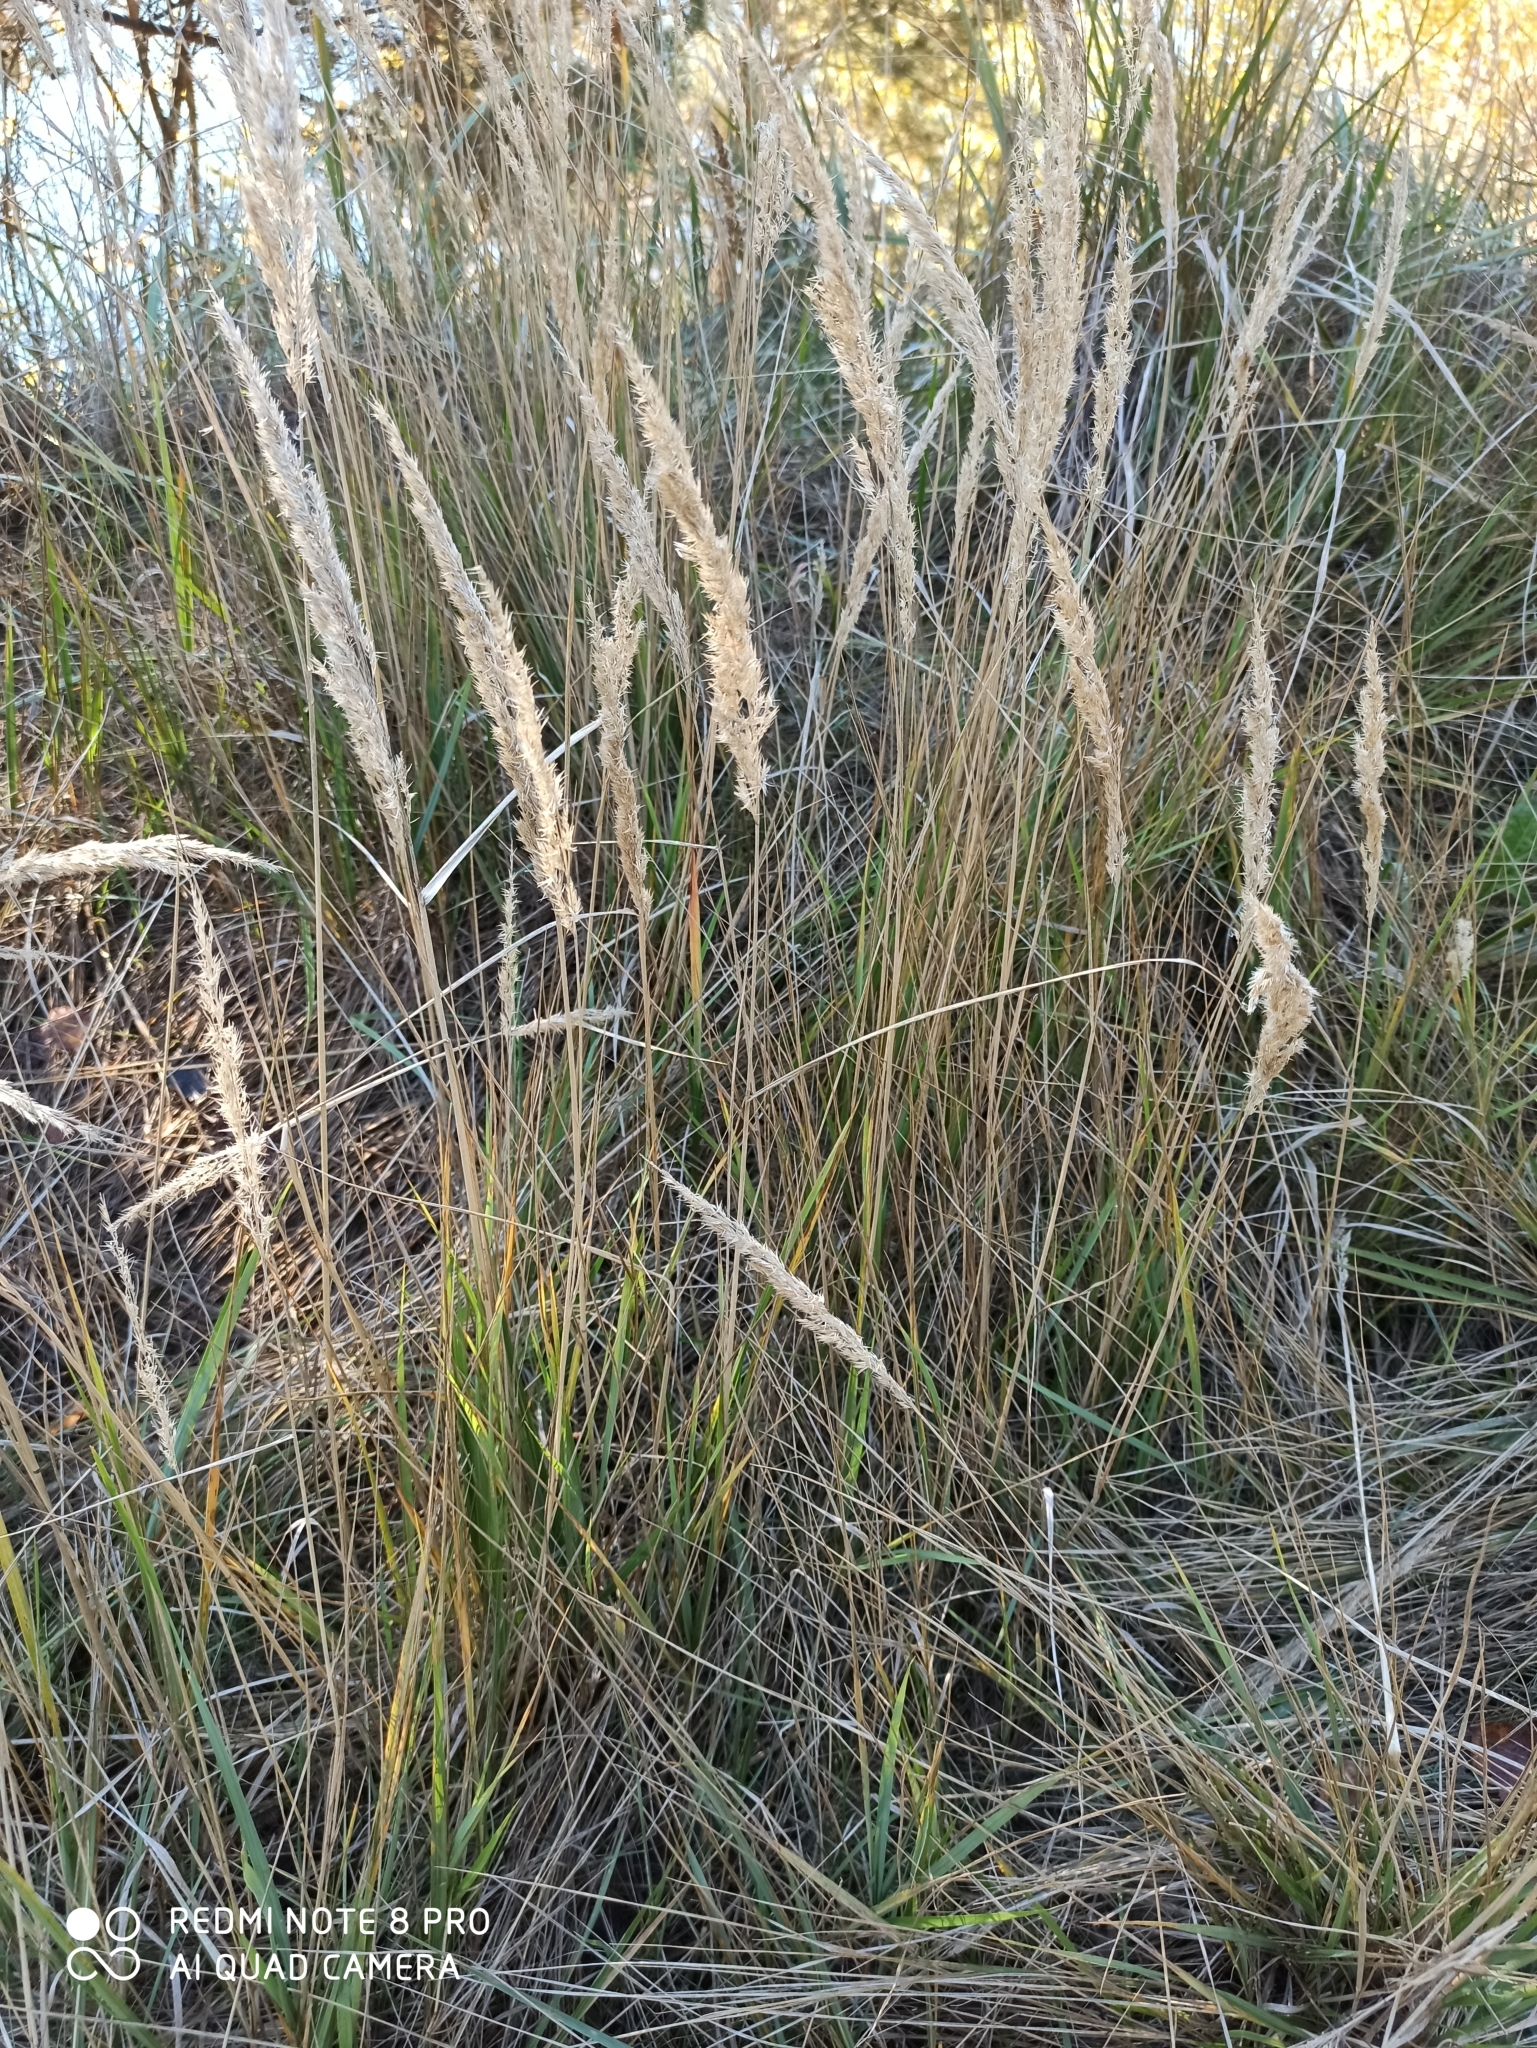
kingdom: Plantae
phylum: Tracheophyta
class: Liliopsida
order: Poales
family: Poaceae
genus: Calamagrostis
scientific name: Calamagrostis epigejos
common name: Wood small-reed
